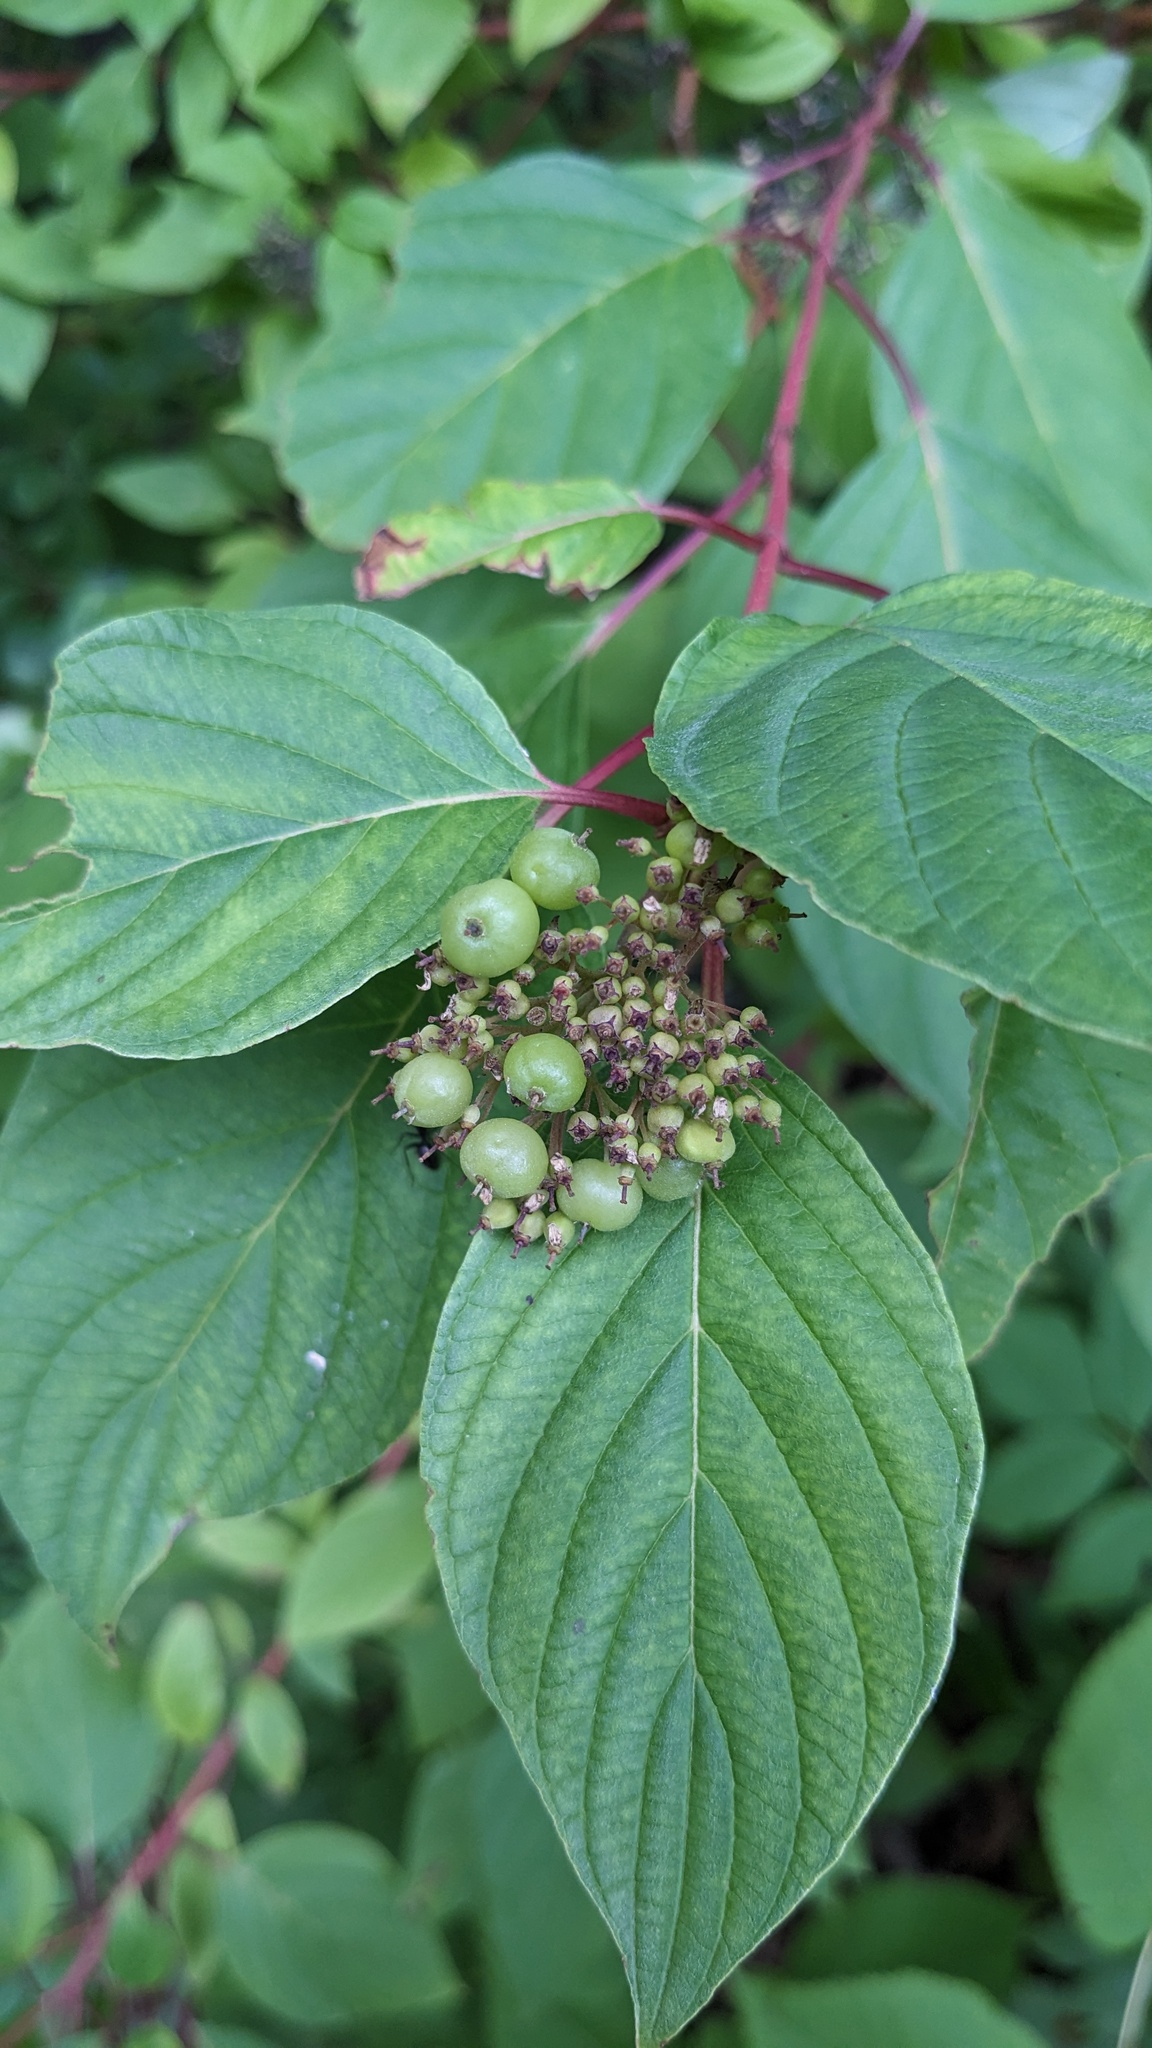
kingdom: Plantae
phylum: Tracheophyta
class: Magnoliopsida
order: Cornales
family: Cornaceae
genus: Cornus
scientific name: Cornus sericea
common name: Red-osier dogwood
